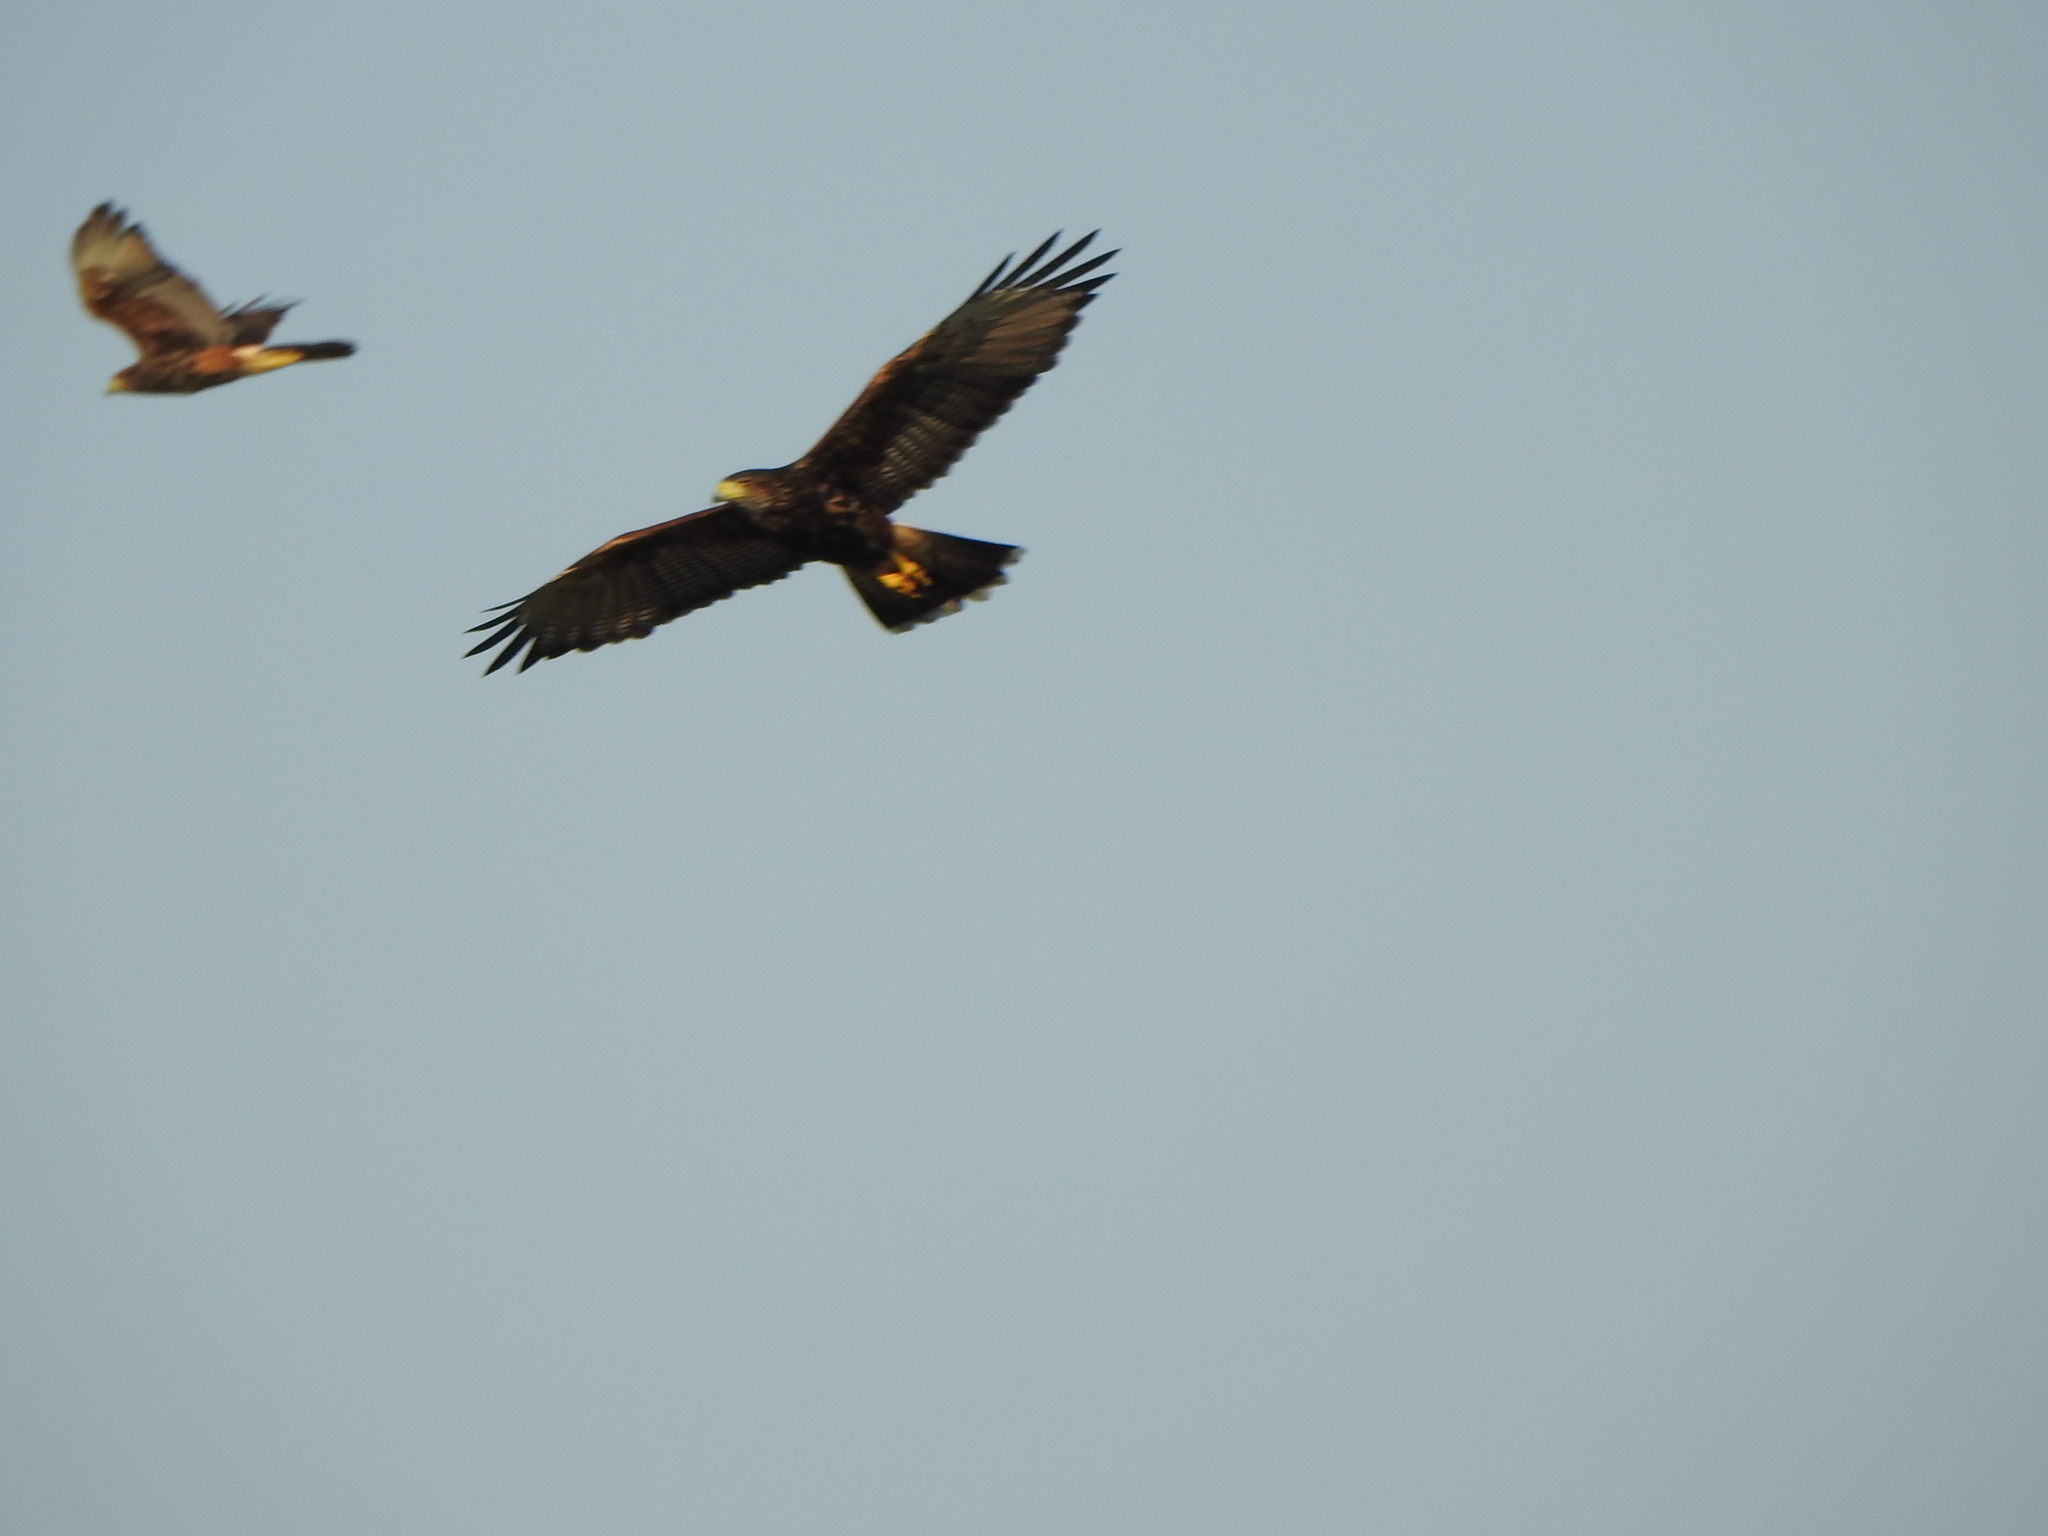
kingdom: Animalia
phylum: Chordata
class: Aves
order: Accipitriformes
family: Accipitridae
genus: Parabuteo
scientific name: Parabuteo unicinctus
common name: Harris's hawk
